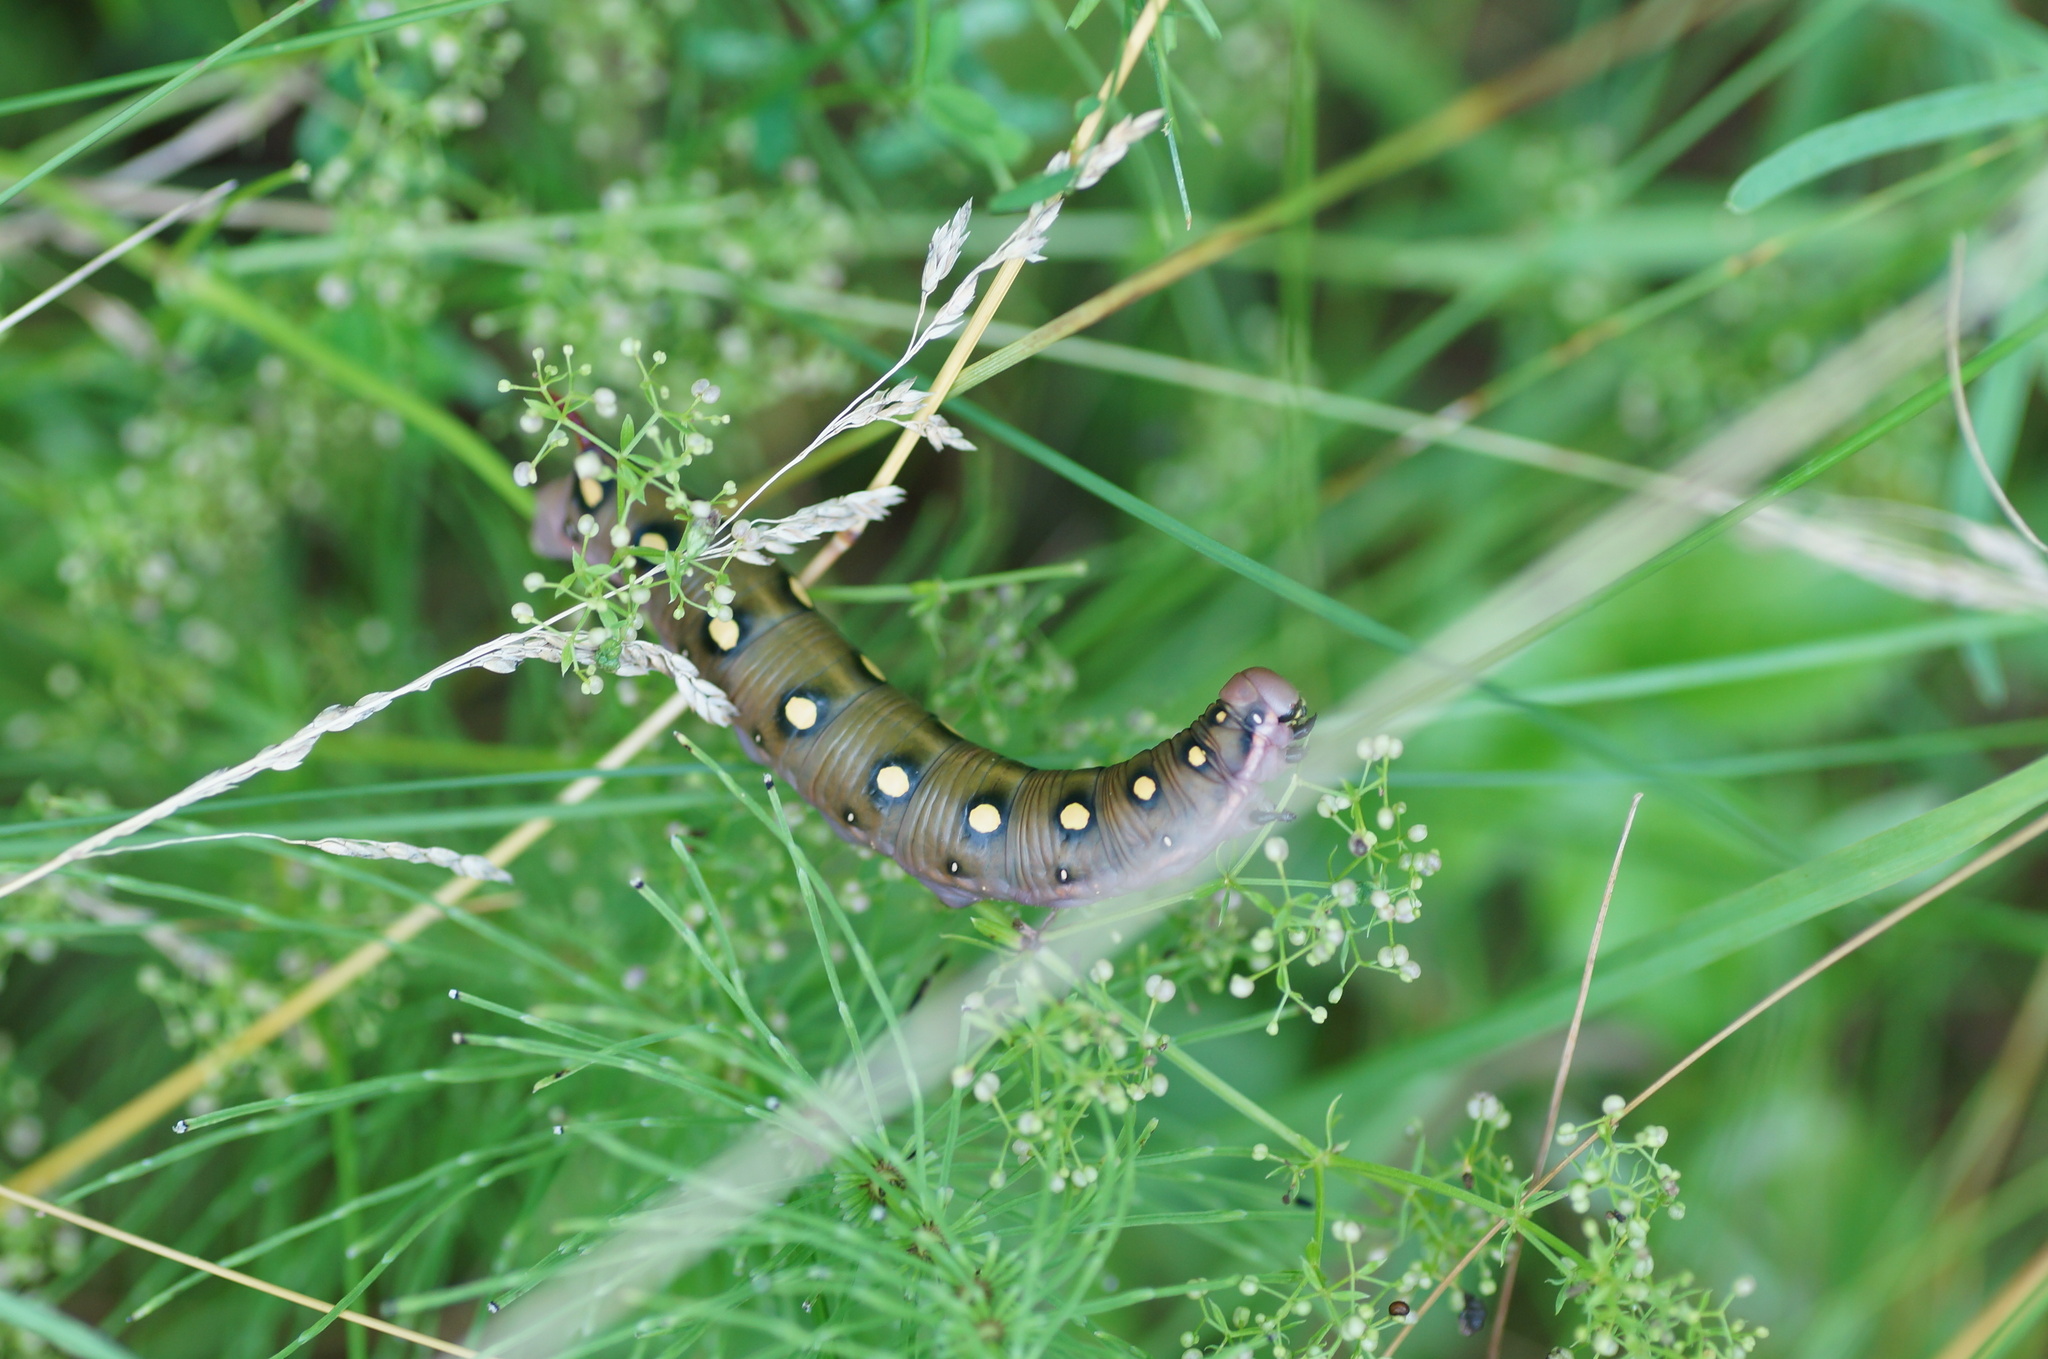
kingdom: Animalia
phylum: Arthropoda
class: Insecta
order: Lepidoptera
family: Sphingidae
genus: Hyles
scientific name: Hyles gallii
